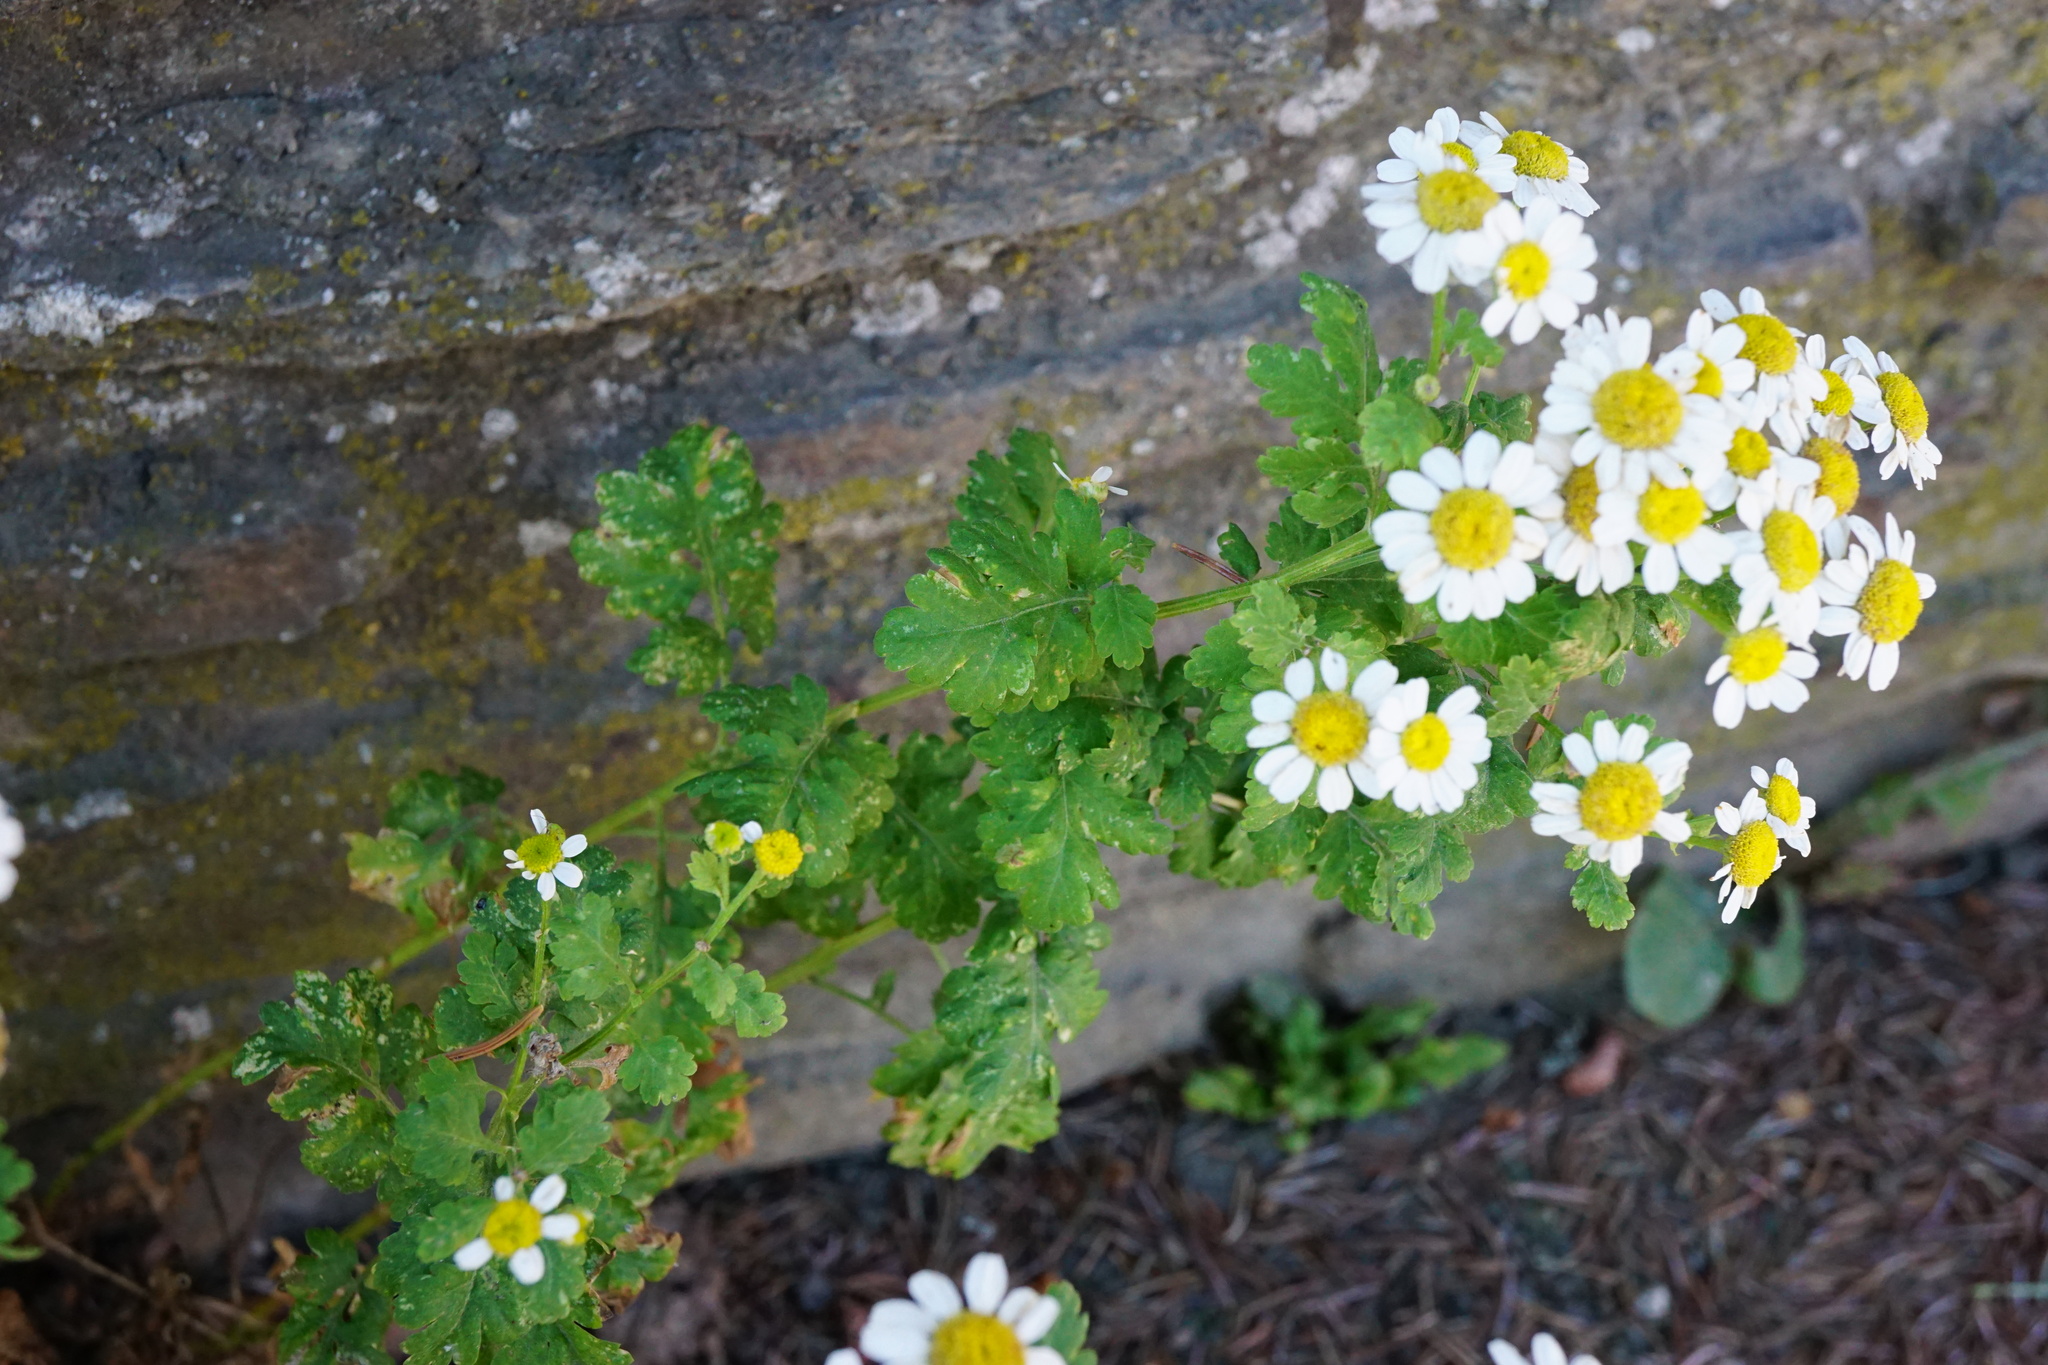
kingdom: Plantae
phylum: Tracheophyta
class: Magnoliopsida
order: Asterales
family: Asteraceae
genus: Tanacetum
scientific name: Tanacetum parthenium
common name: Feverfew
